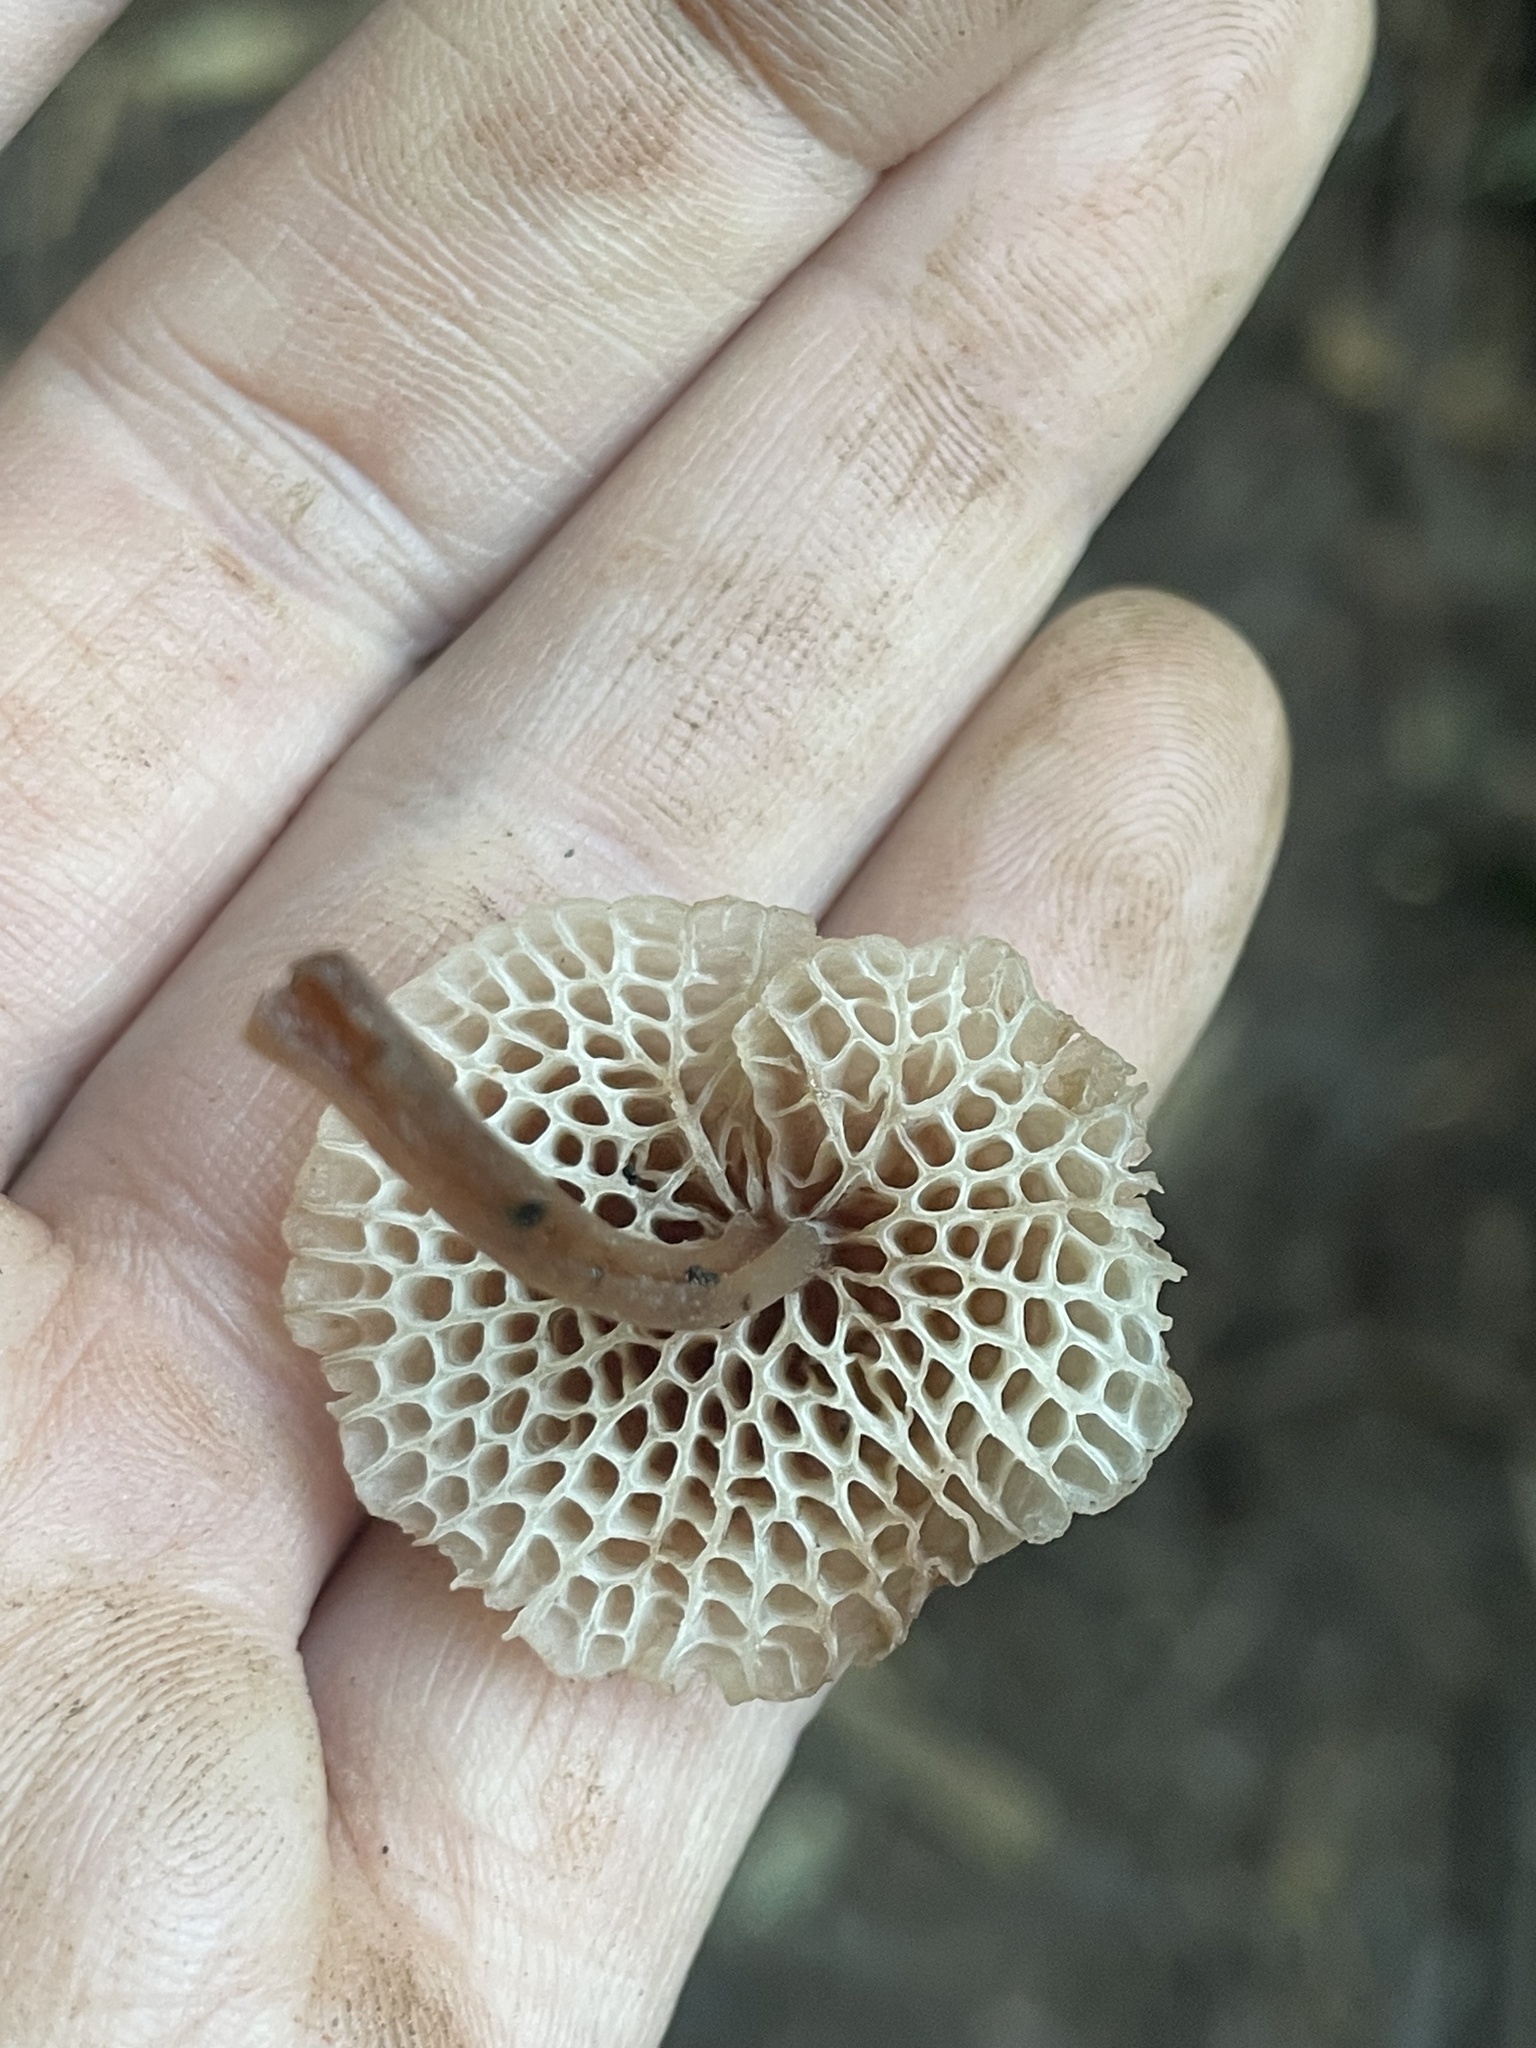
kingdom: Fungi
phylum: Basidiomycota
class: Agaricomycetes
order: Agaricales
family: Mycenaceae
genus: Filoboletus
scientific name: Filoboletus manipularis
